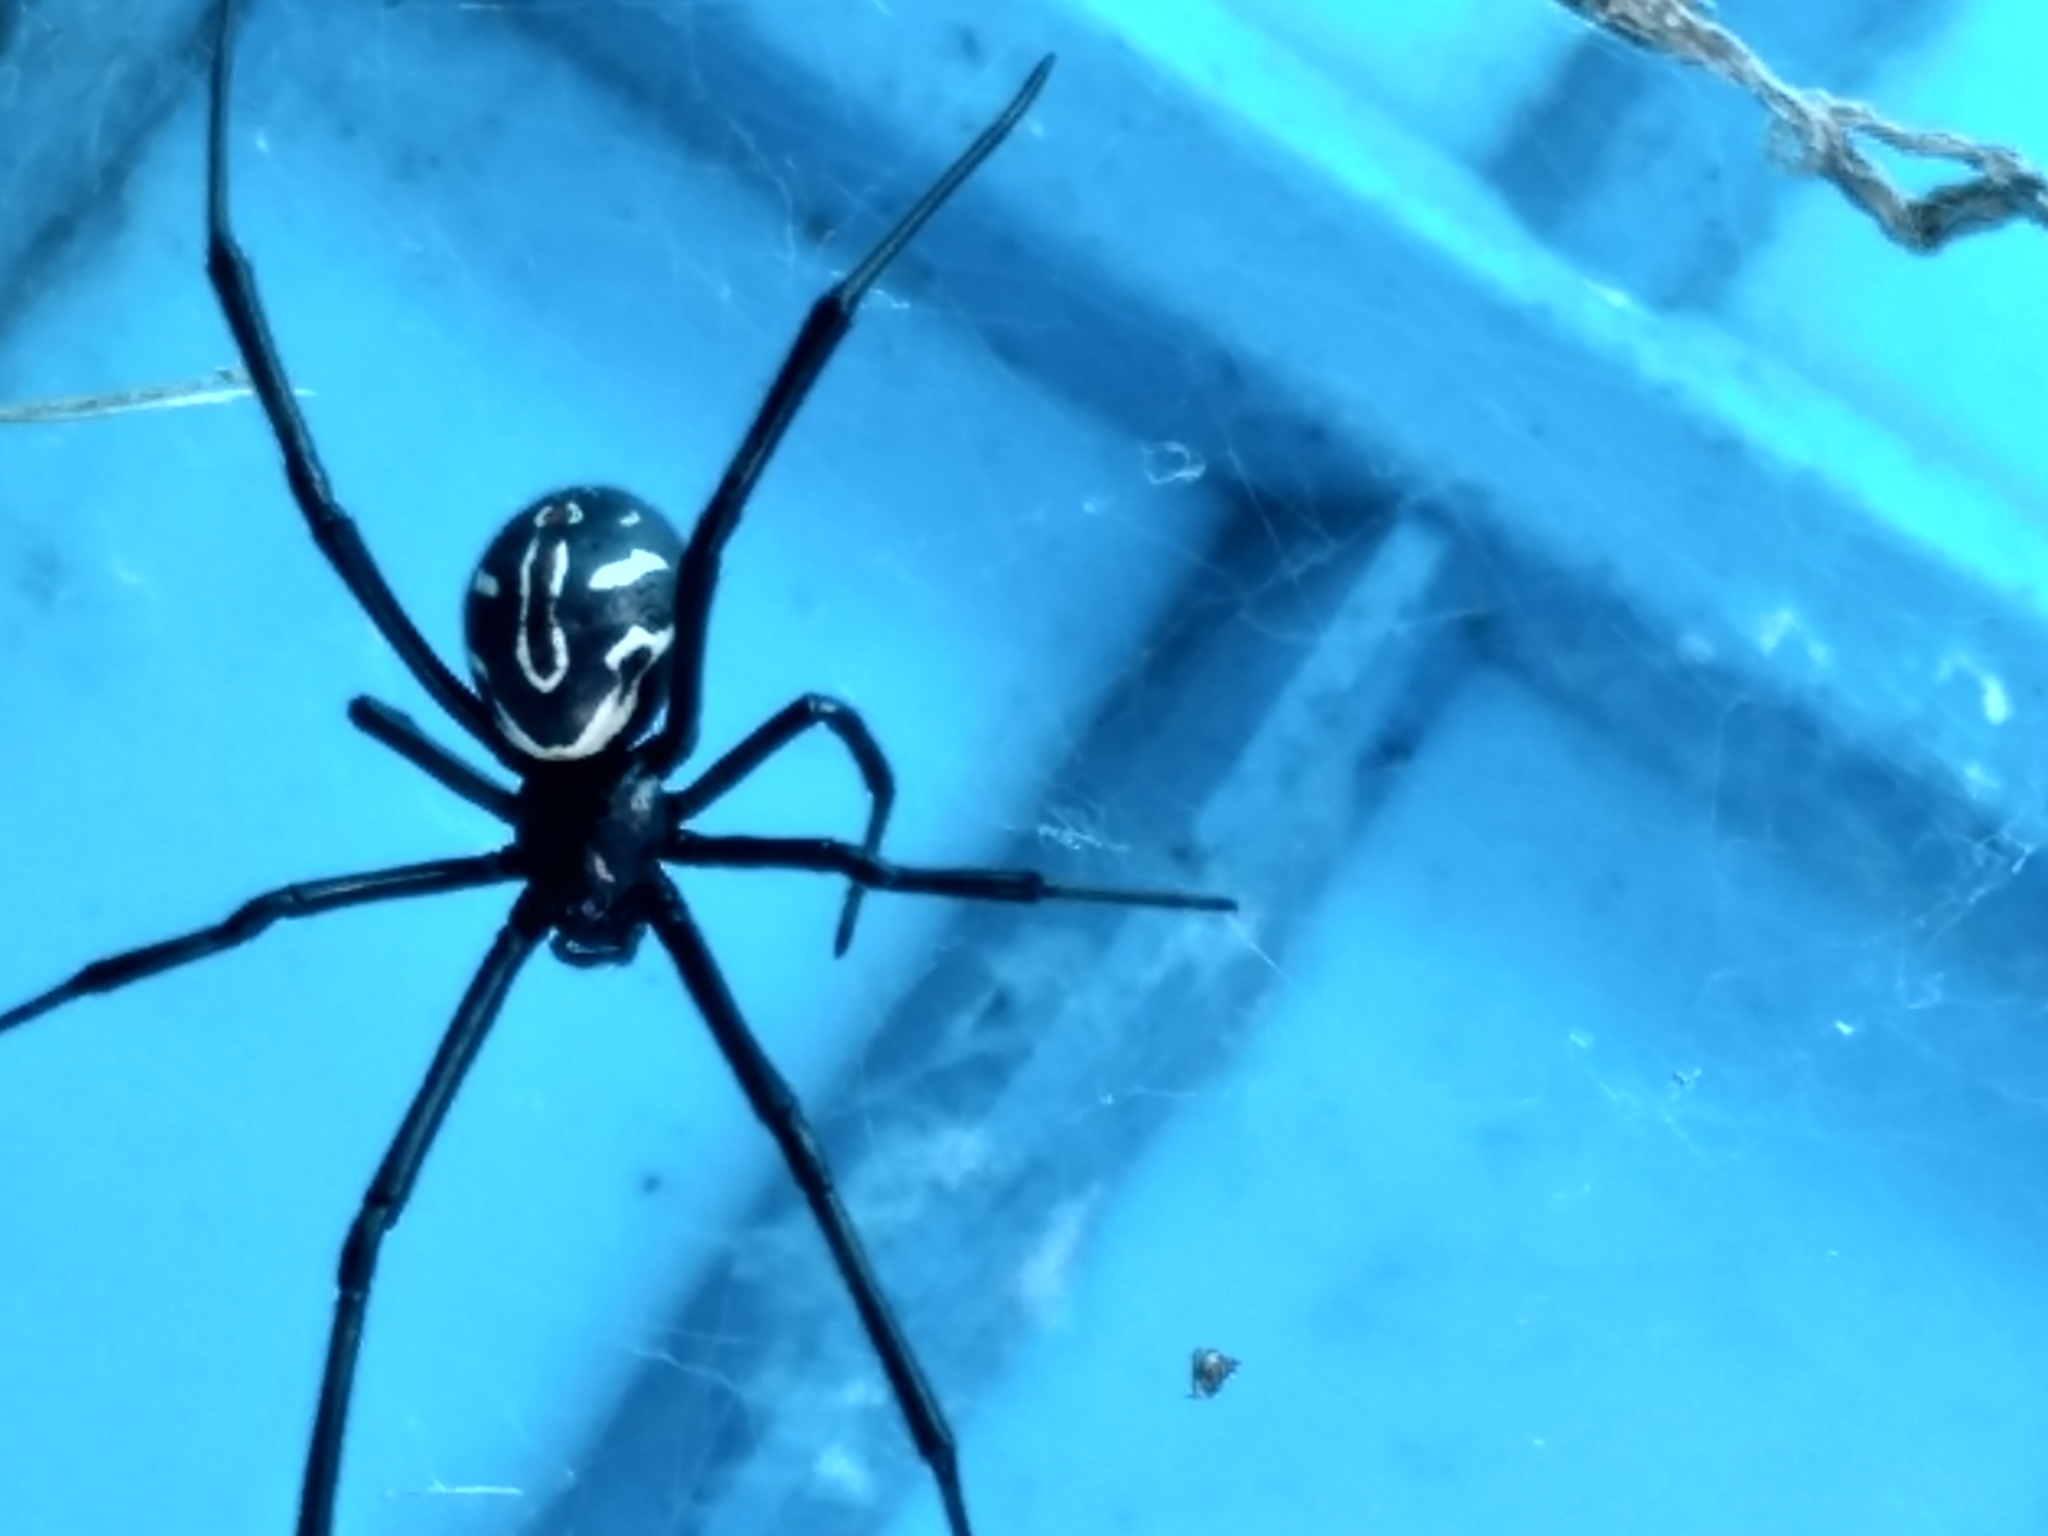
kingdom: Animalia
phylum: Arthropoda
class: Arachnida
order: Araneae
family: Theridiidae
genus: Latrodectus
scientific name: Latrodectus hesperus
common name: Western black widow
